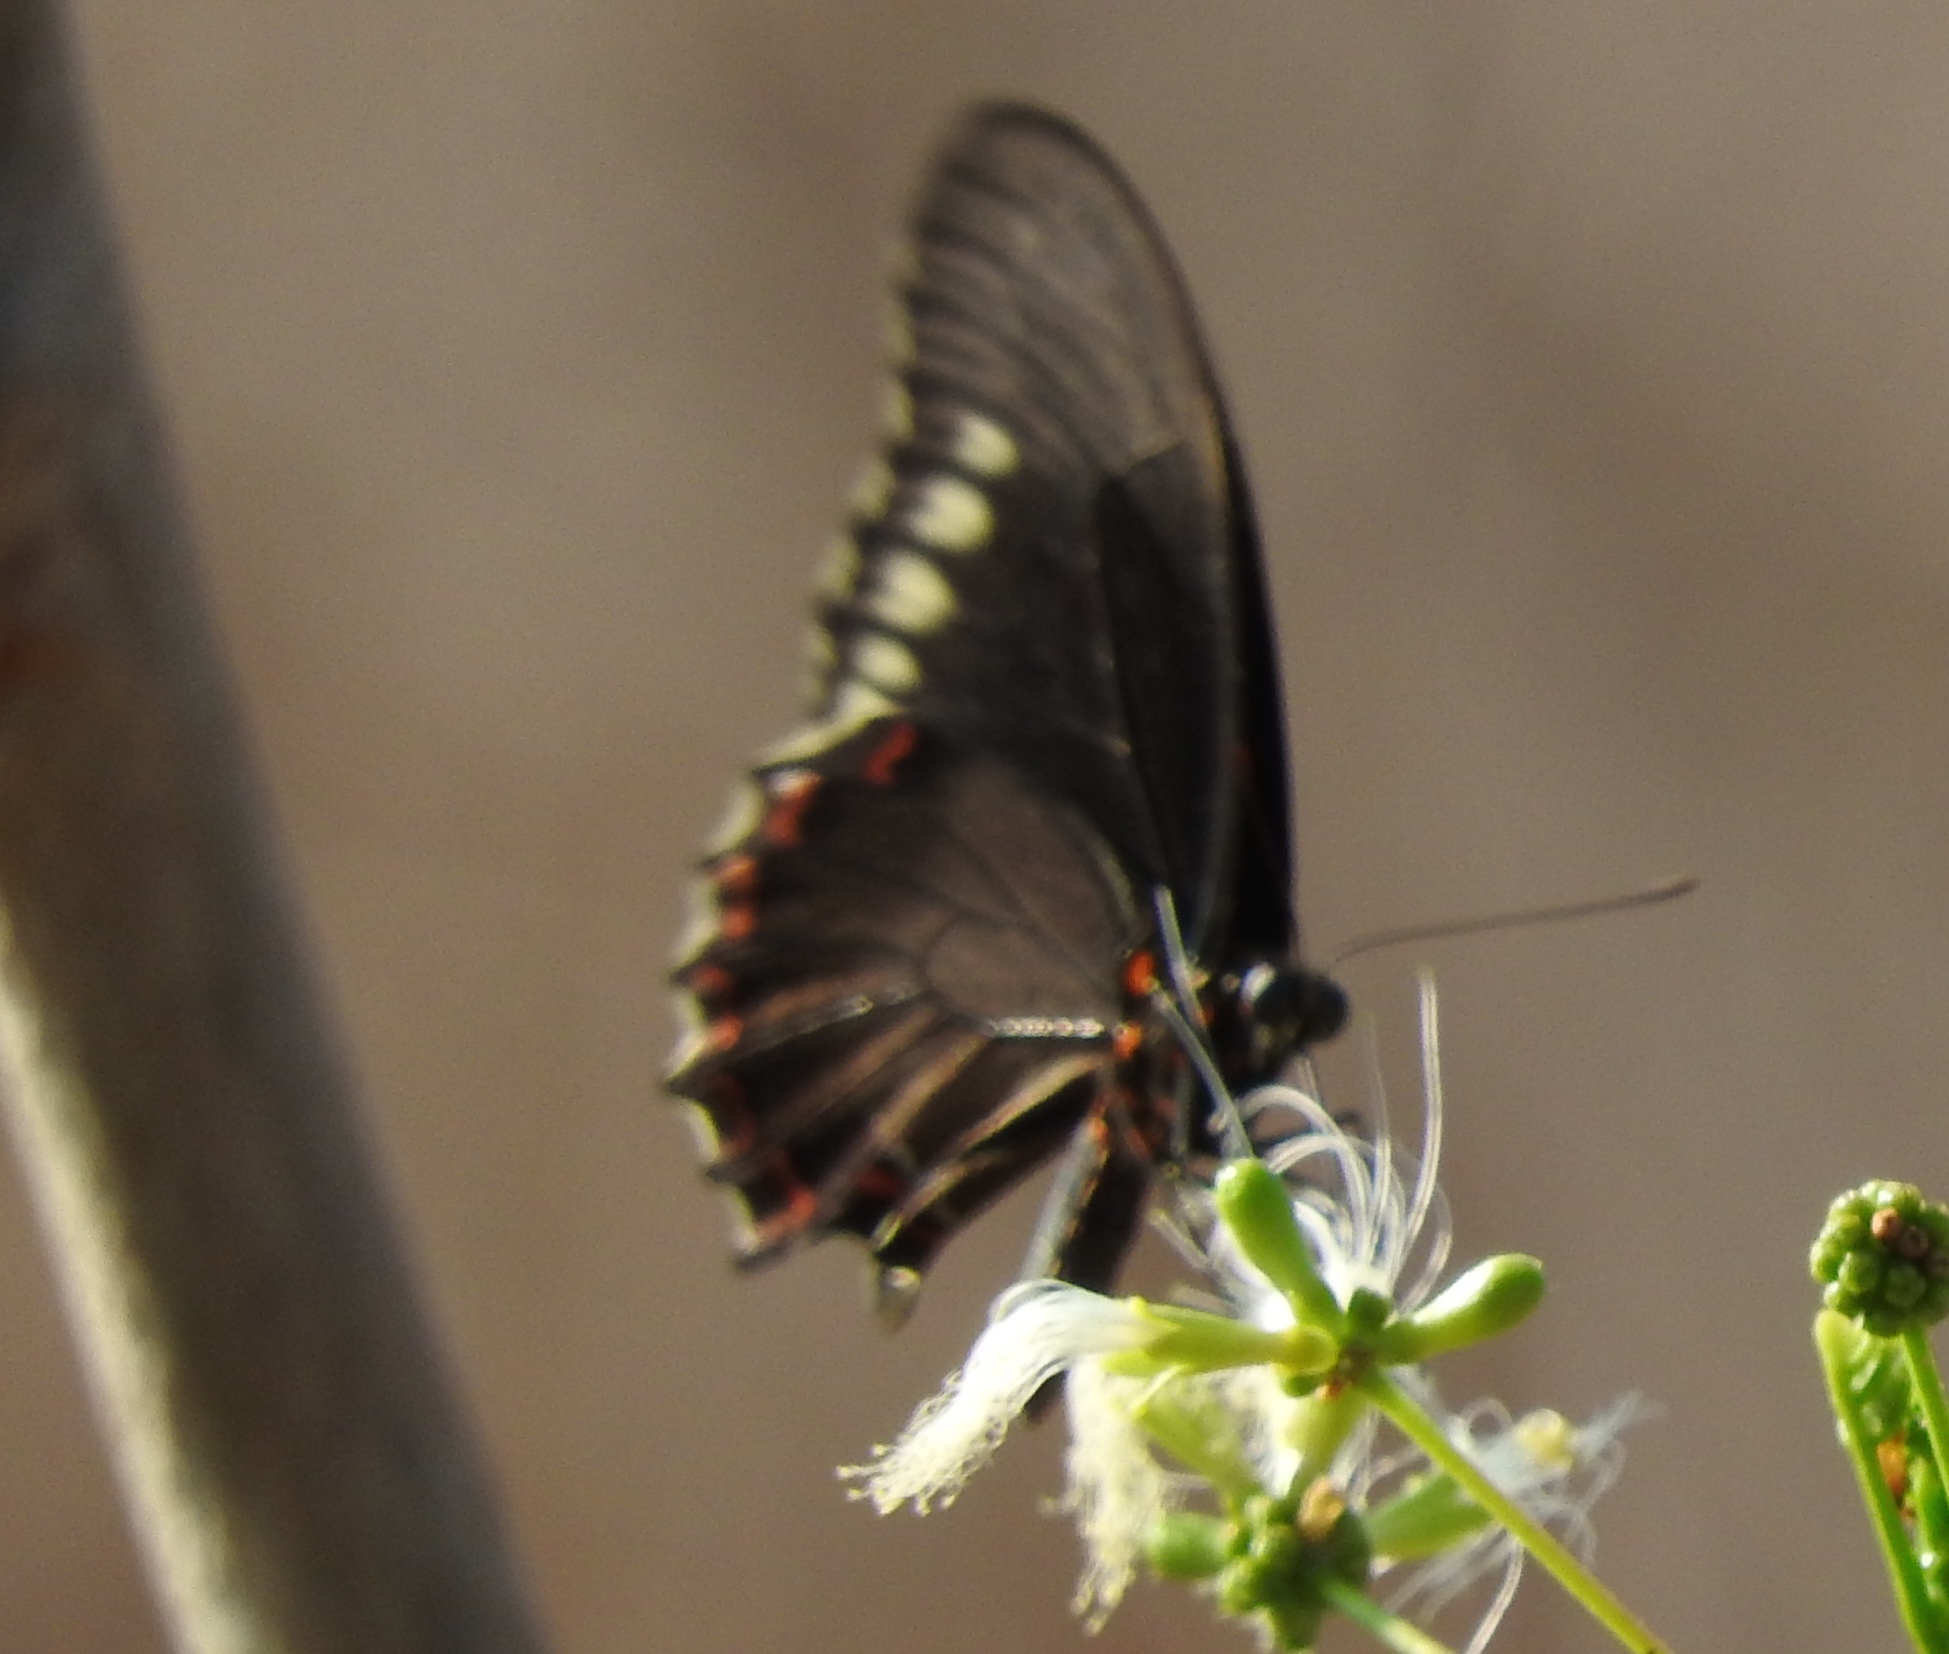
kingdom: Animalia
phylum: Arthropoda
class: Insecta
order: Lepidoptera
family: Papilionidae
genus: Battus
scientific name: Battus polydamas
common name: Polydamas swallowtail
